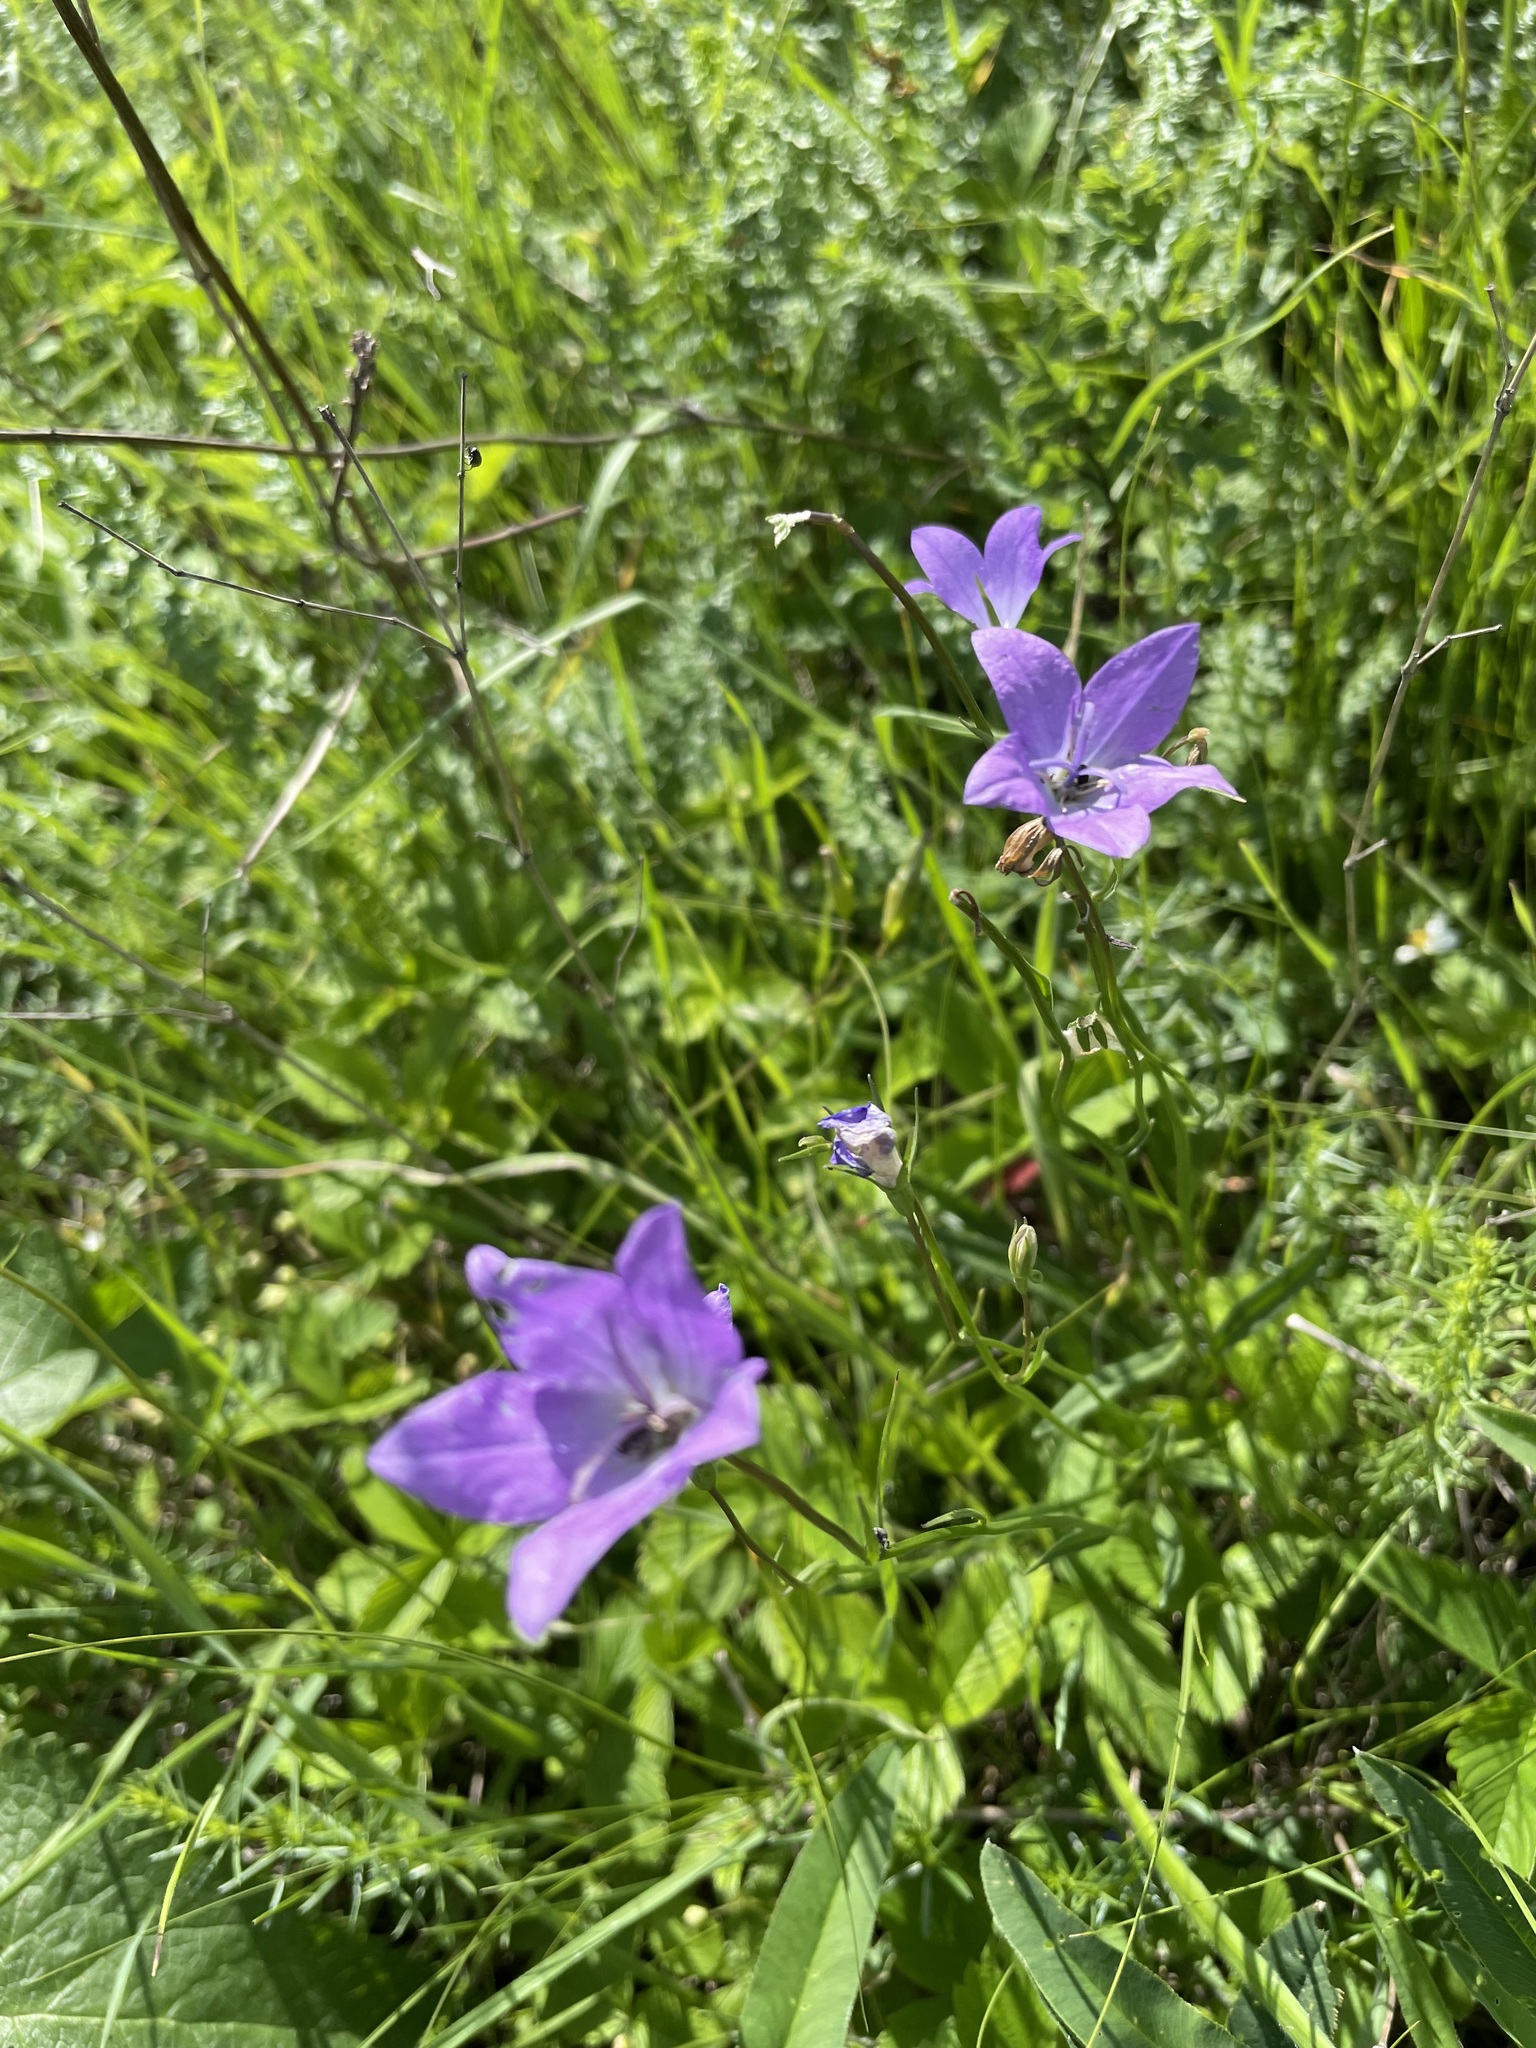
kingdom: Plantae
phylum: Tracheophyta
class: Magnoliopsida
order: Asterales
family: Campanulaceae
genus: Campanula
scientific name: Campanula stevenii
